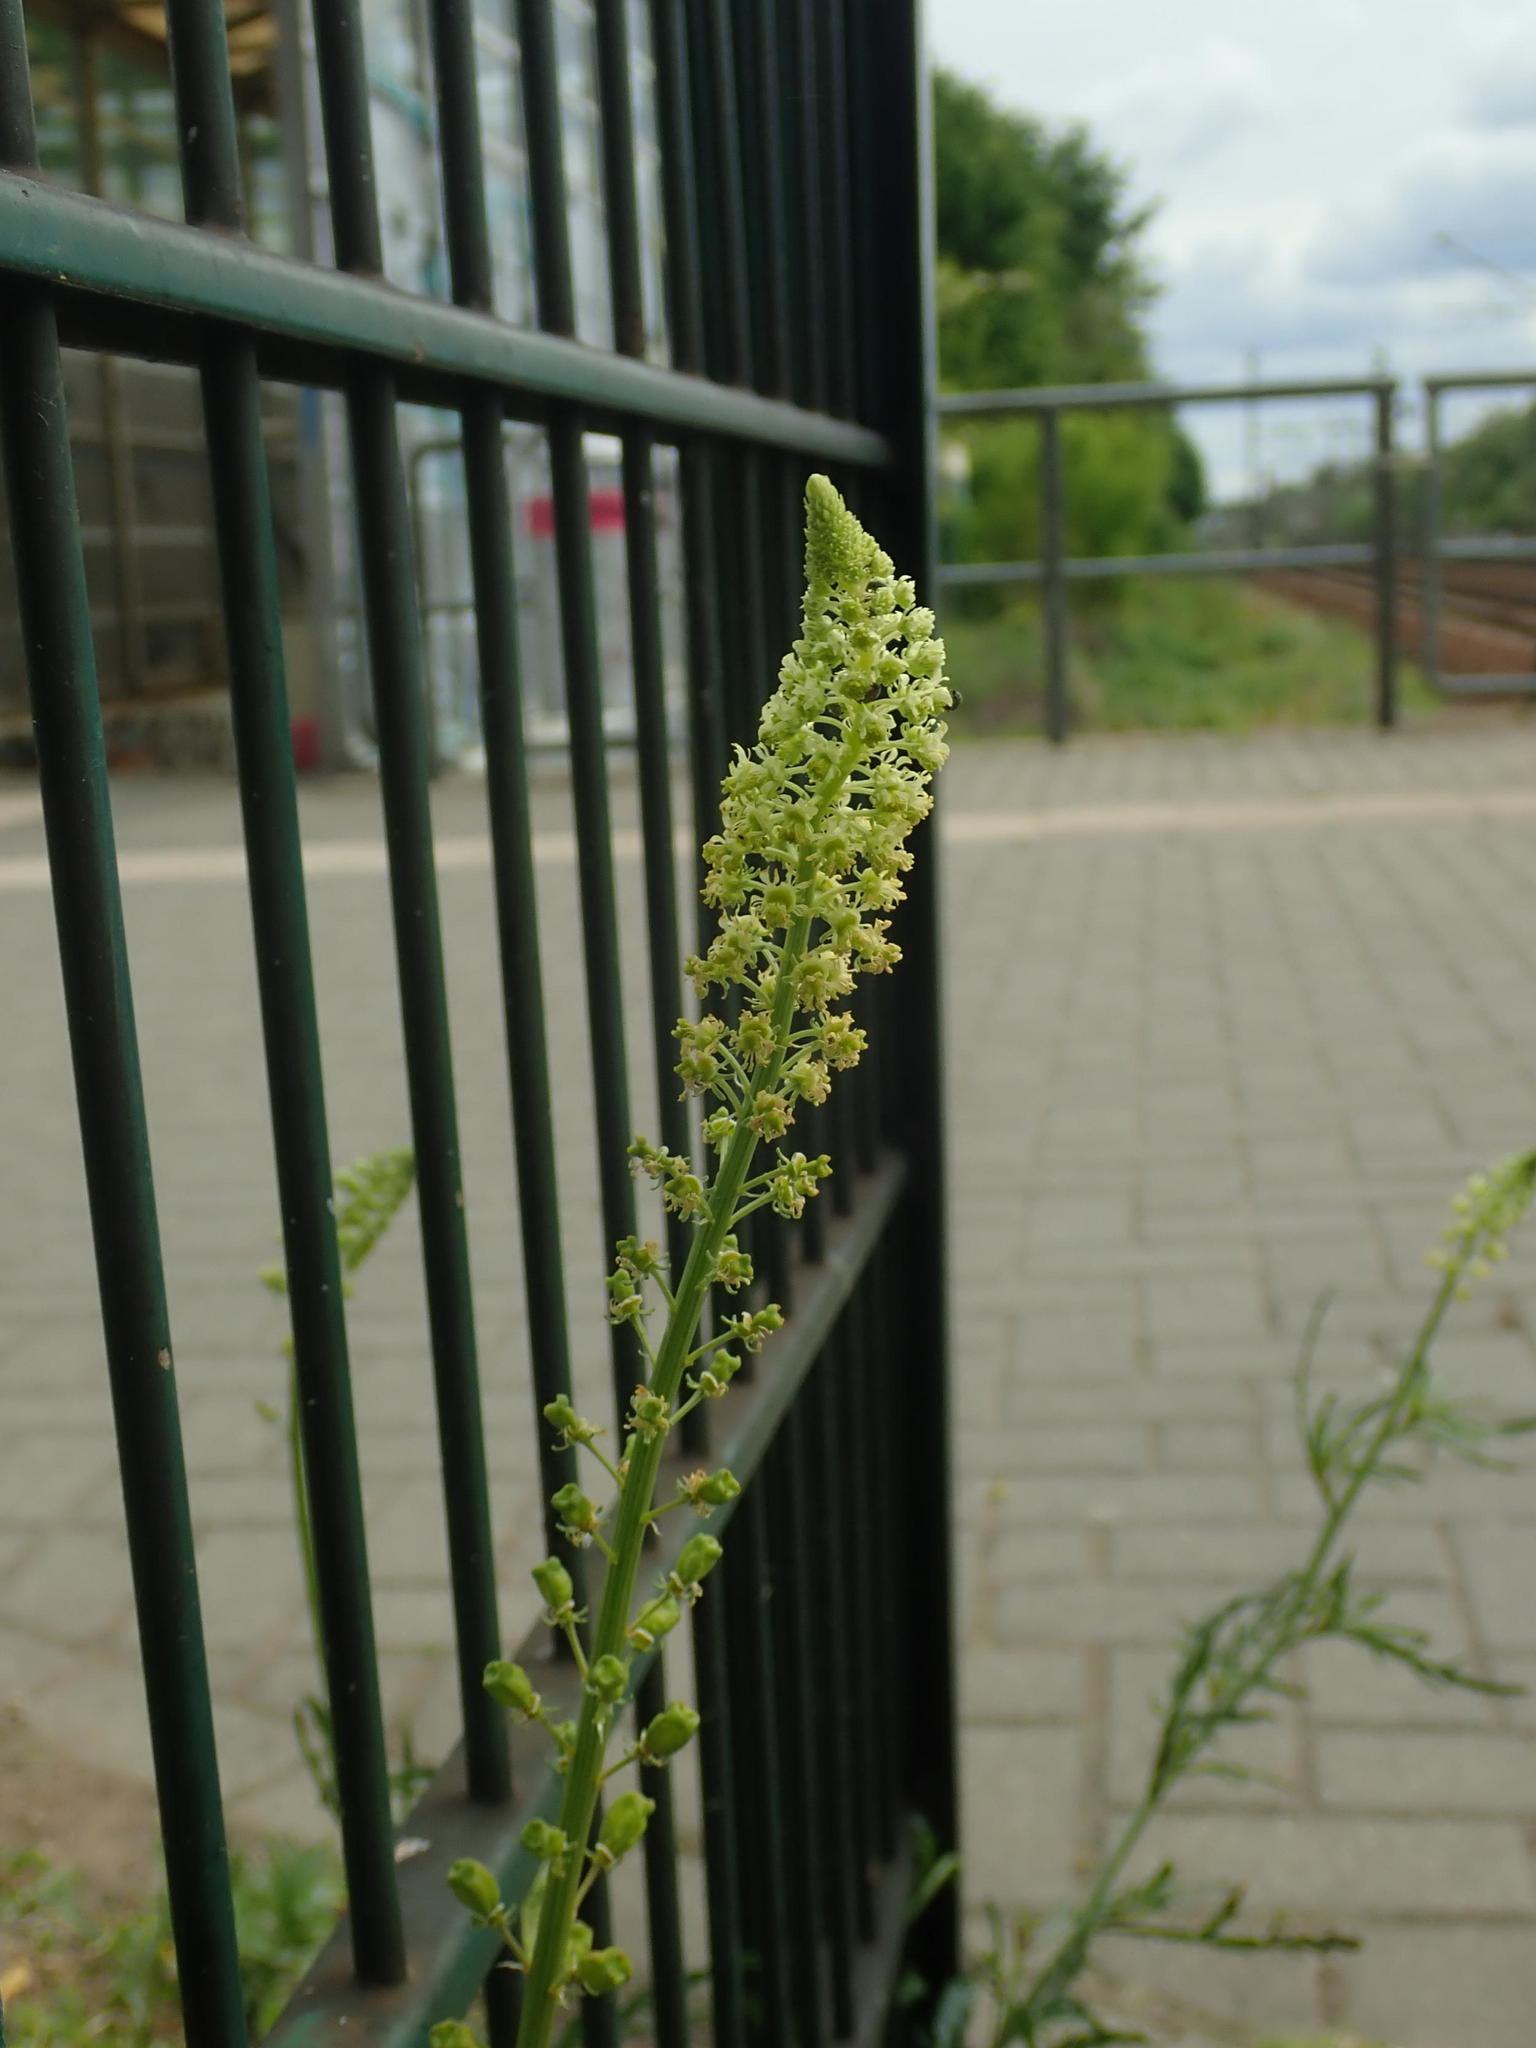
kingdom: Plantae
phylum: Tracheophyta
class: Magnoliopsida
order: Brassicales
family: Resedaceae
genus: Reseda
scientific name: Reseda lutea
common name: Wild mignonette
